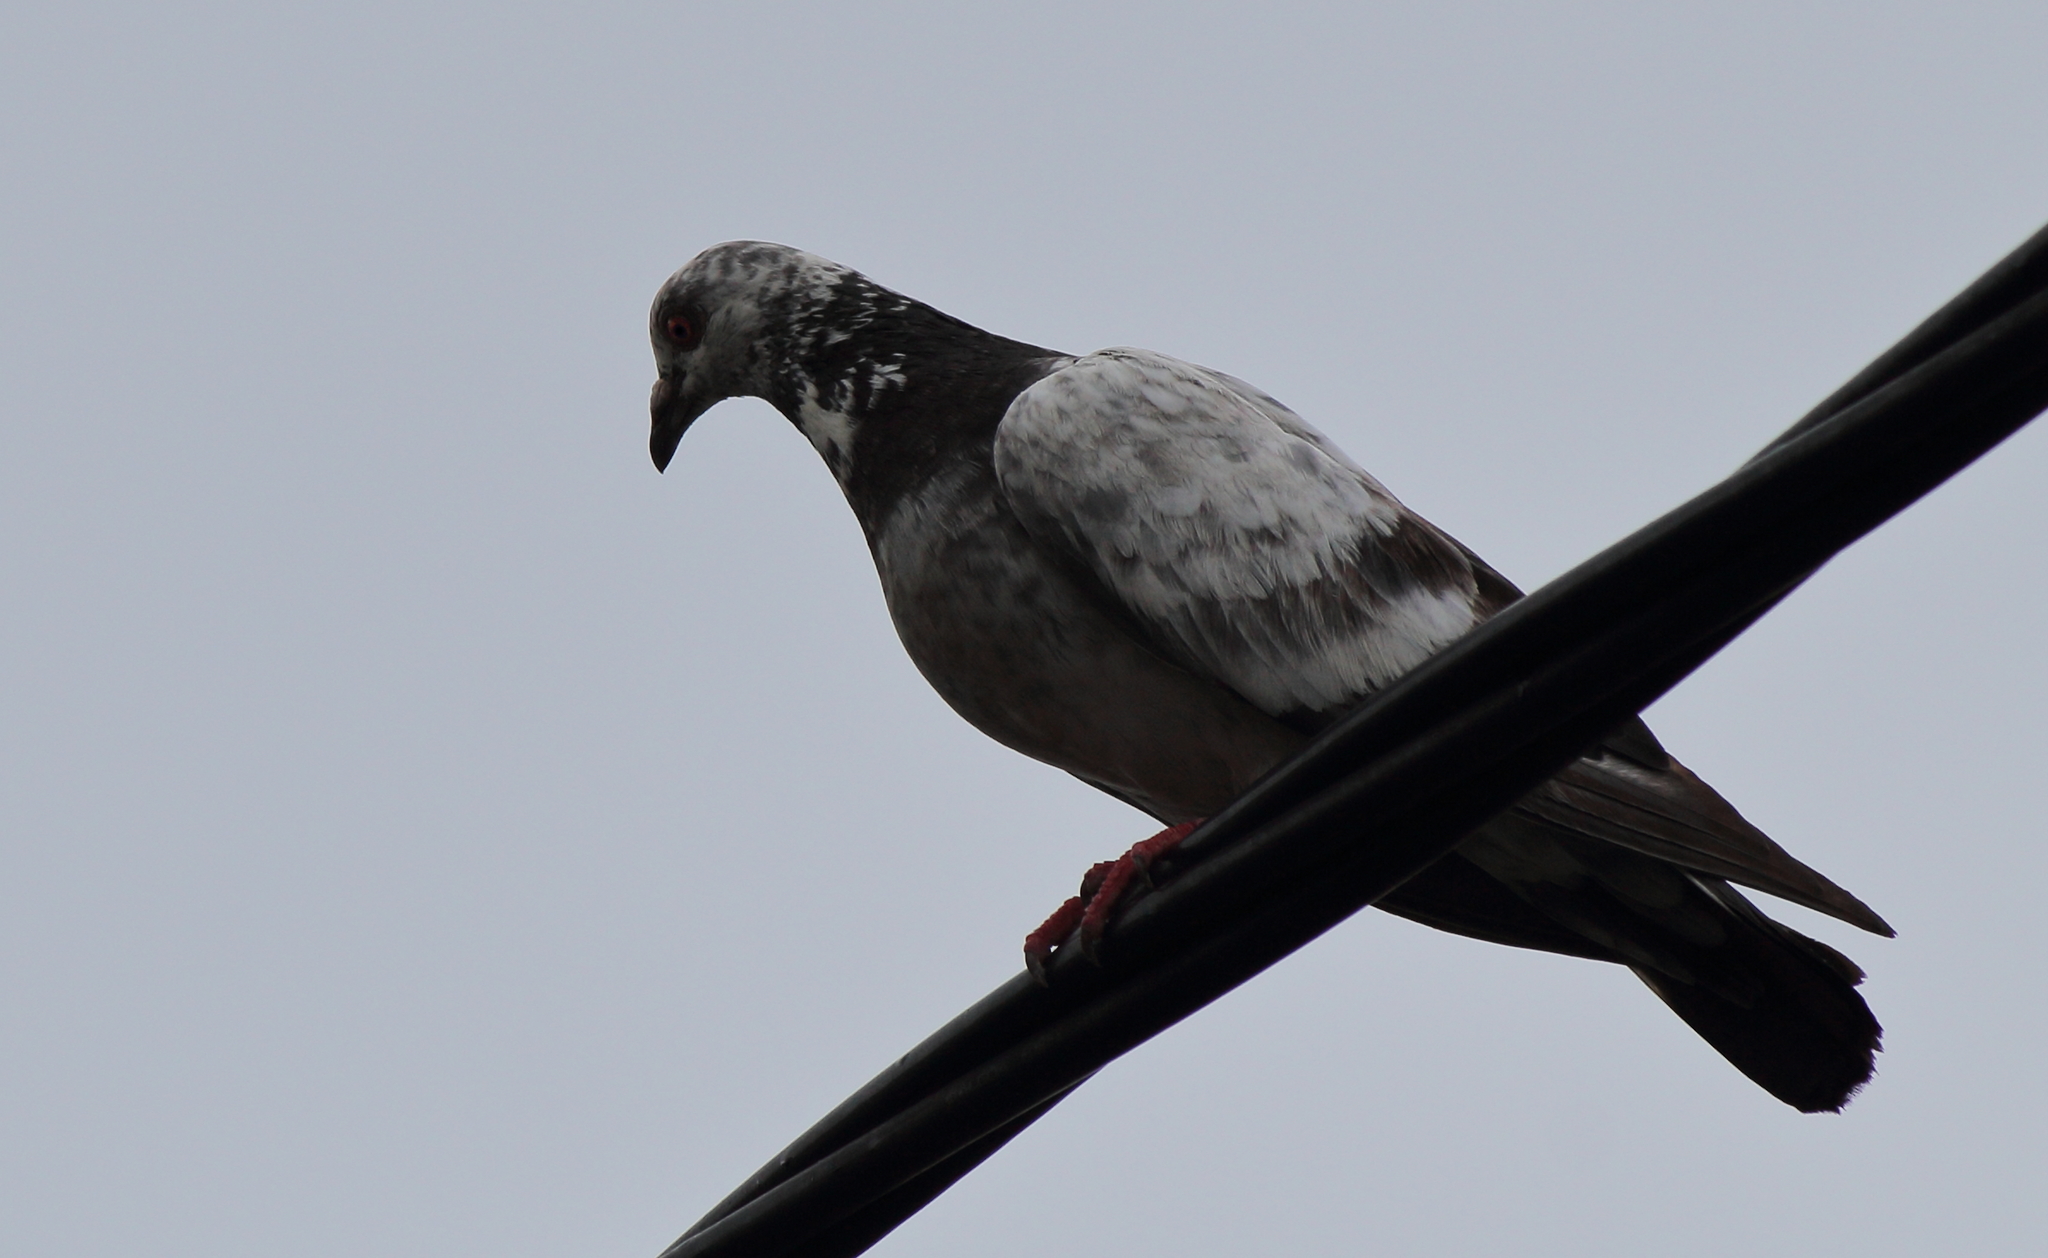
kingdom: Animalia
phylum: Chordata
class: Aves
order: Columbiformes
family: Columbidae
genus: Columba
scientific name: Columba livia
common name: Rock pigeon
